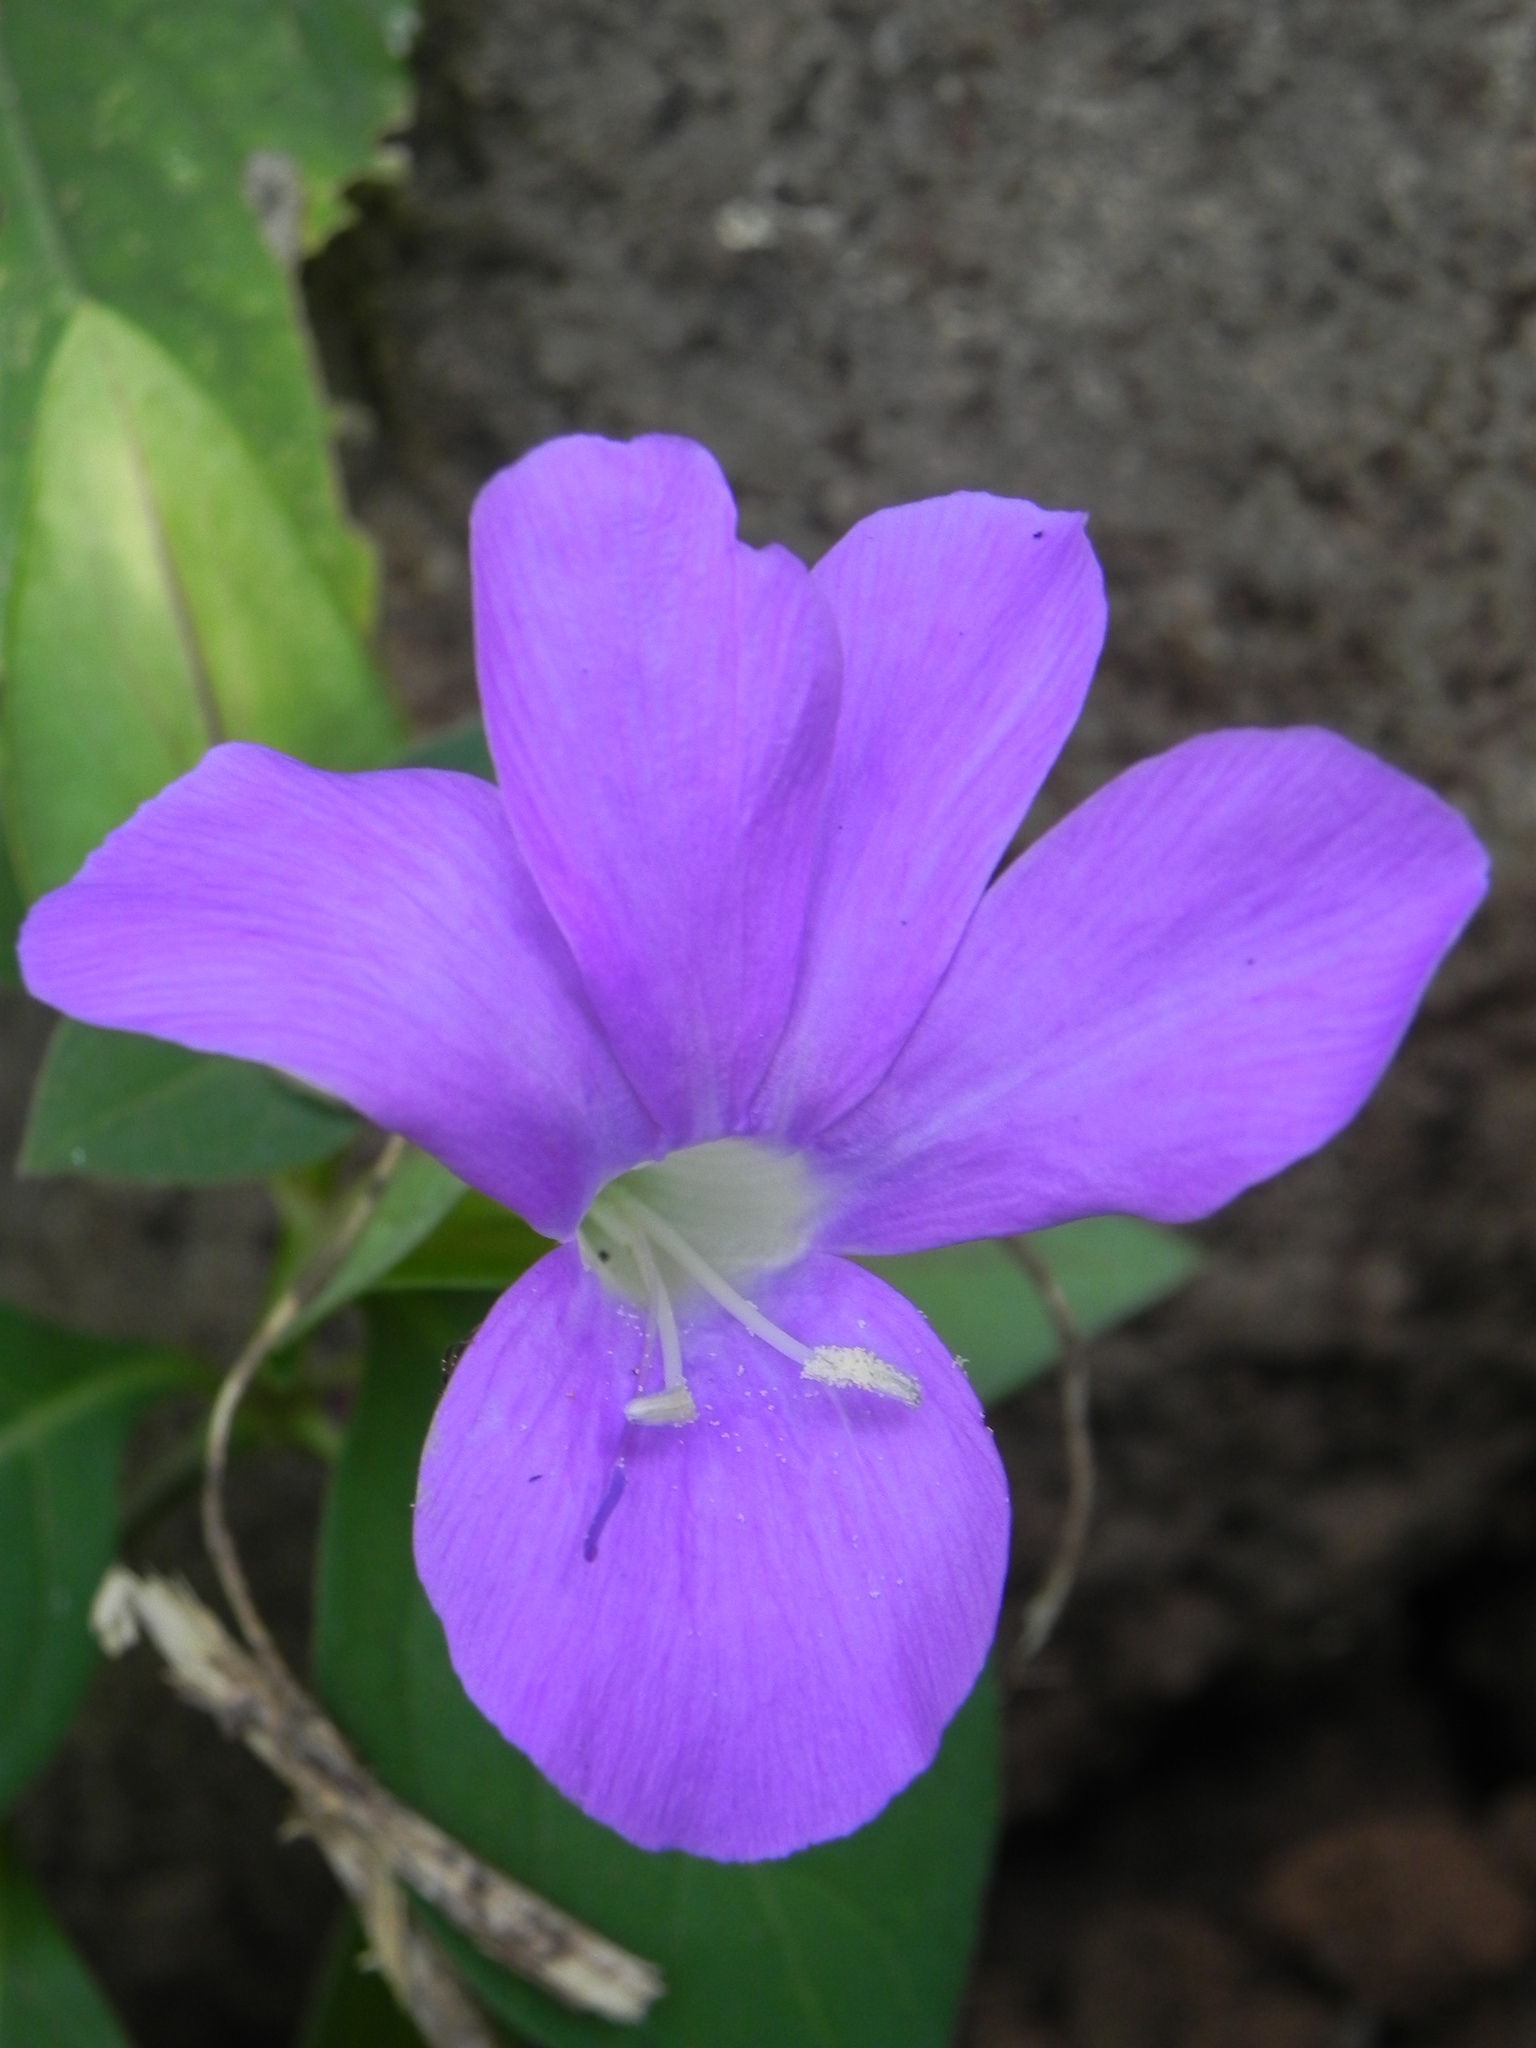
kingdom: Plantae
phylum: Tracheophyta
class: Magnoliopsida
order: Lamiales
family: Acanthaceae
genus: Barleria
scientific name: Barleria prattensis
